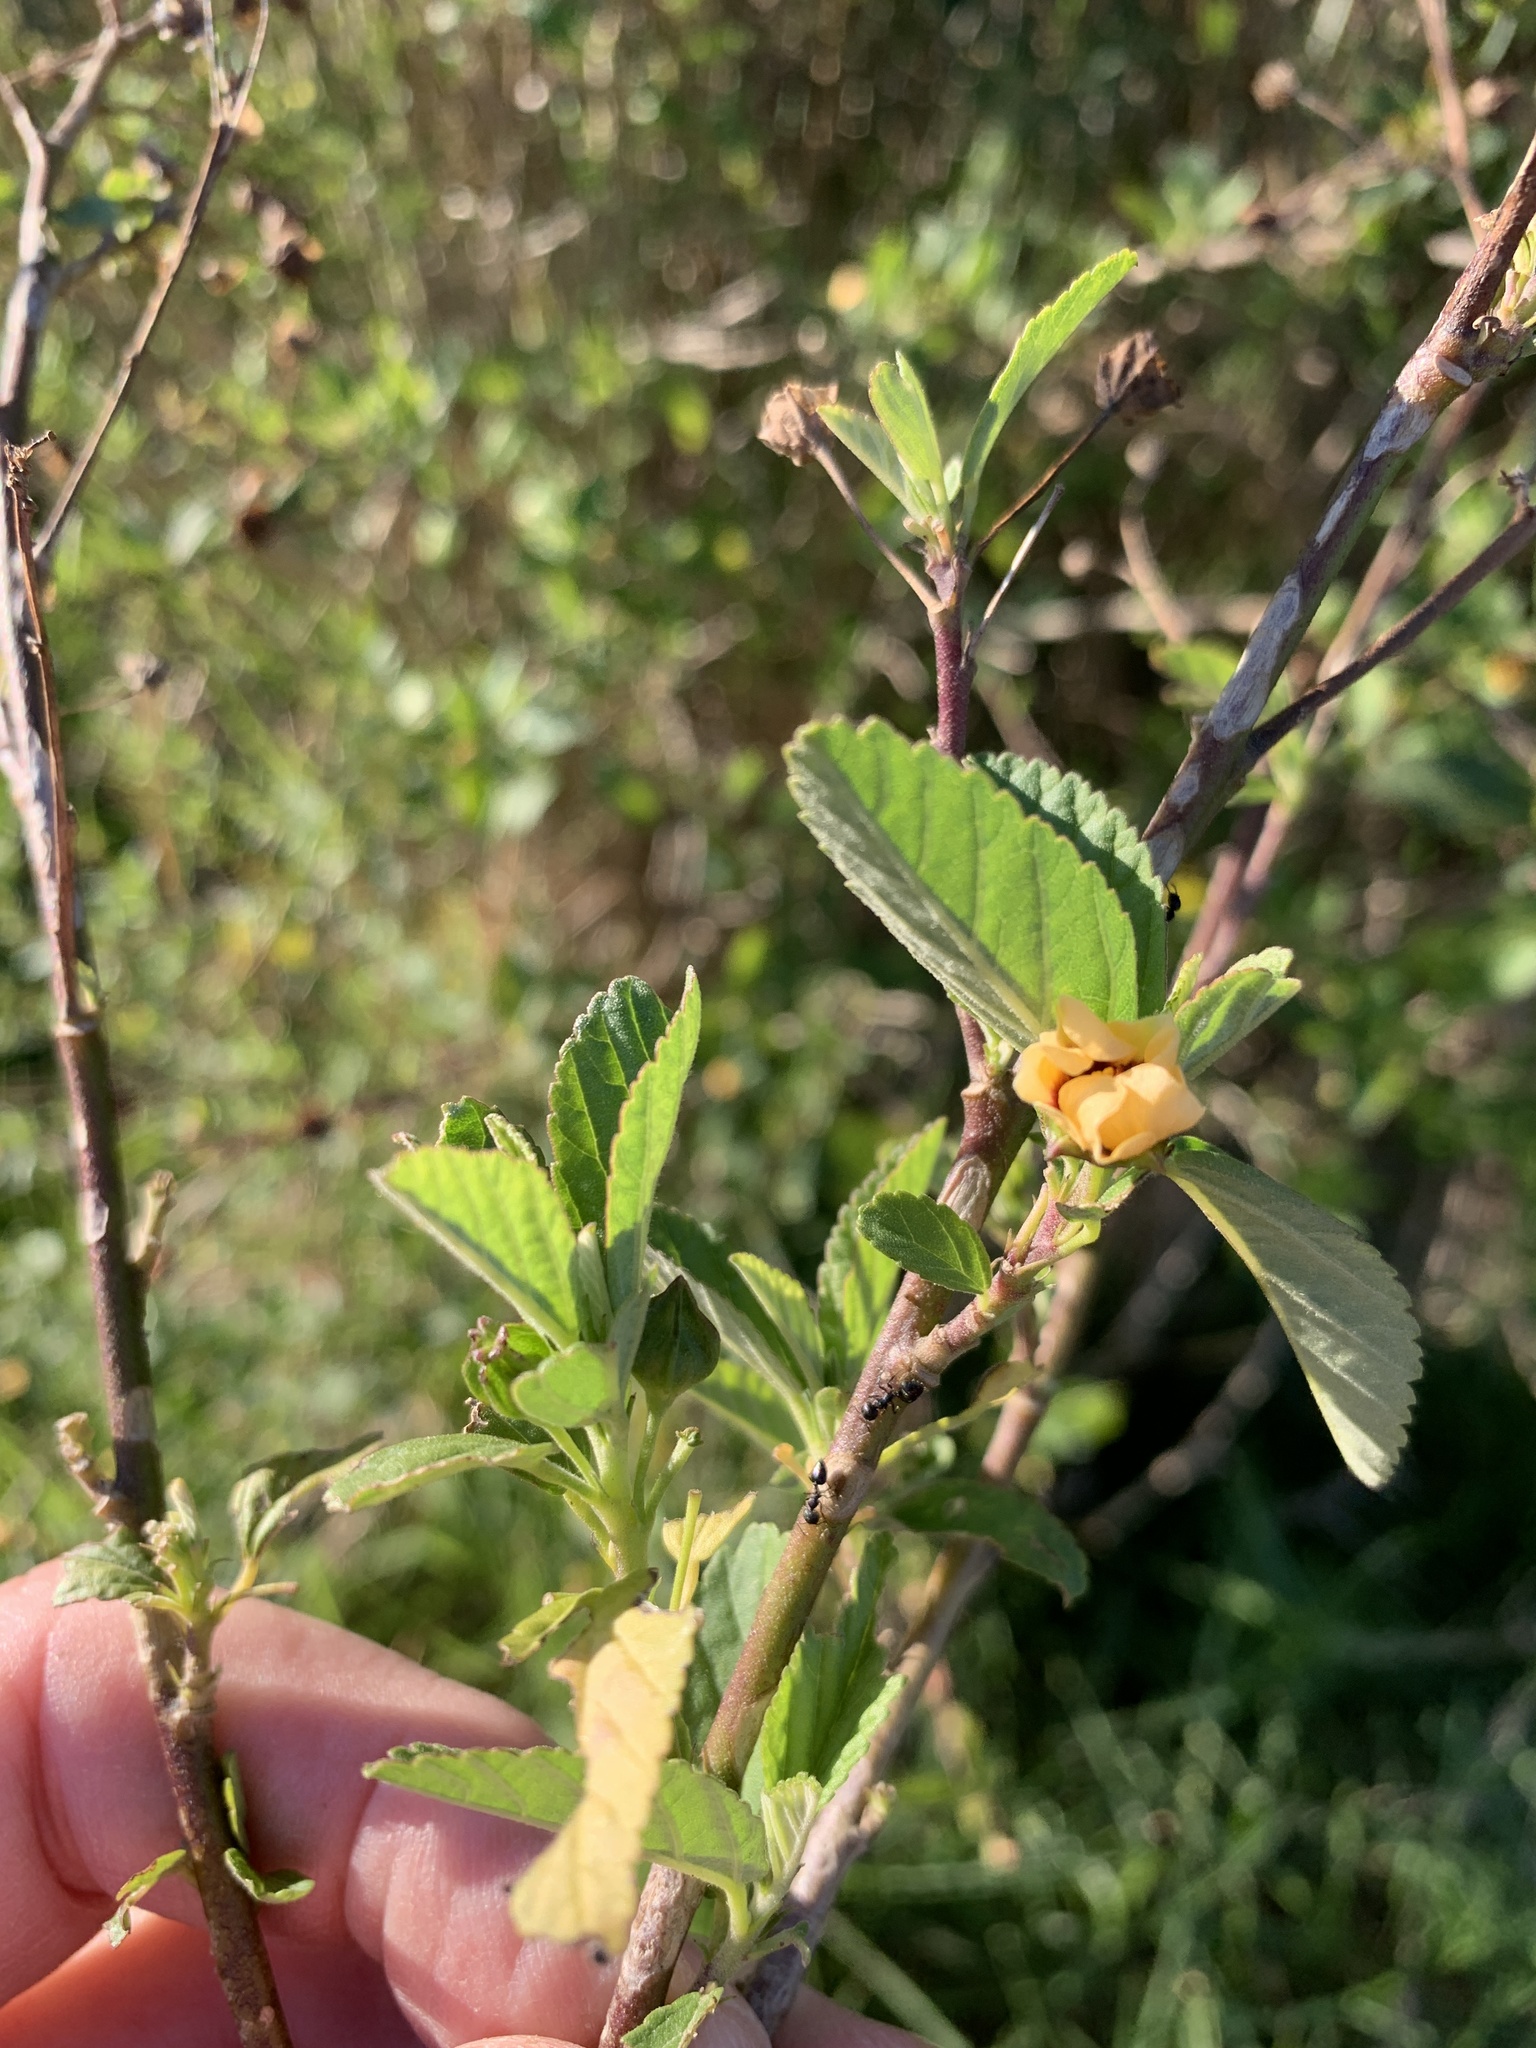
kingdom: Plantae
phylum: Tracheophyta
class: Magnoliopsida
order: Malvales
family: Malvaceae
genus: Sida
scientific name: Sida rhombifolia
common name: Queensland-hemp
